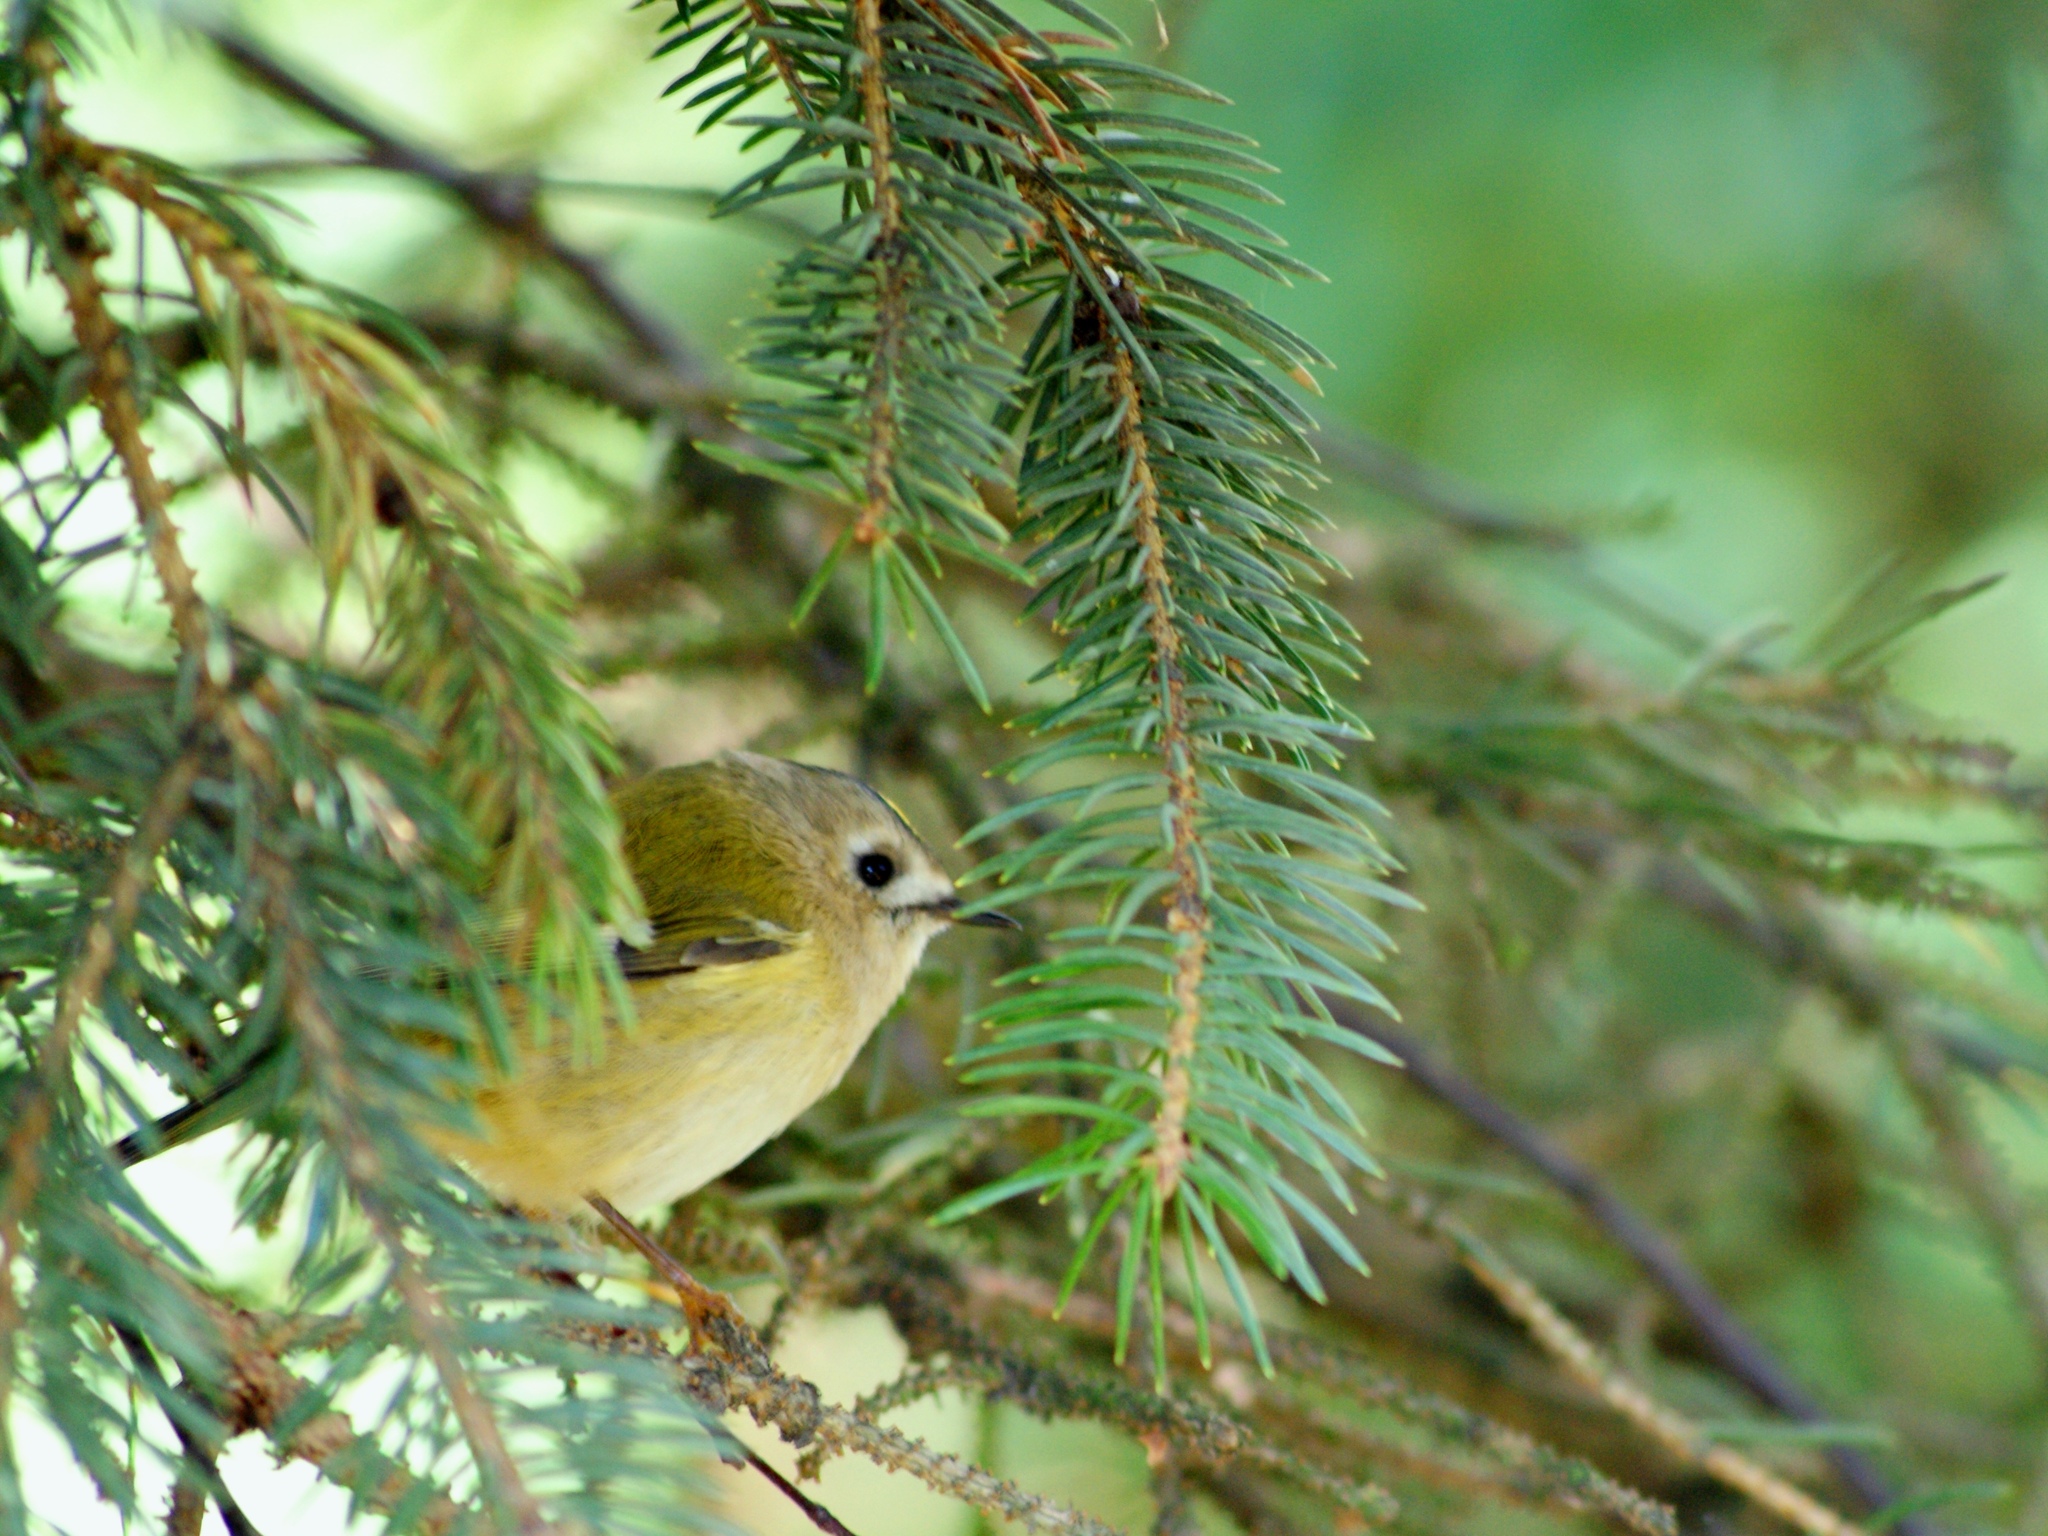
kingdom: Animalia
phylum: Chordata
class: Aves
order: Passeriformes
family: Regulidae
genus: Regulus
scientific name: Regulus regulus
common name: Goldcrest
